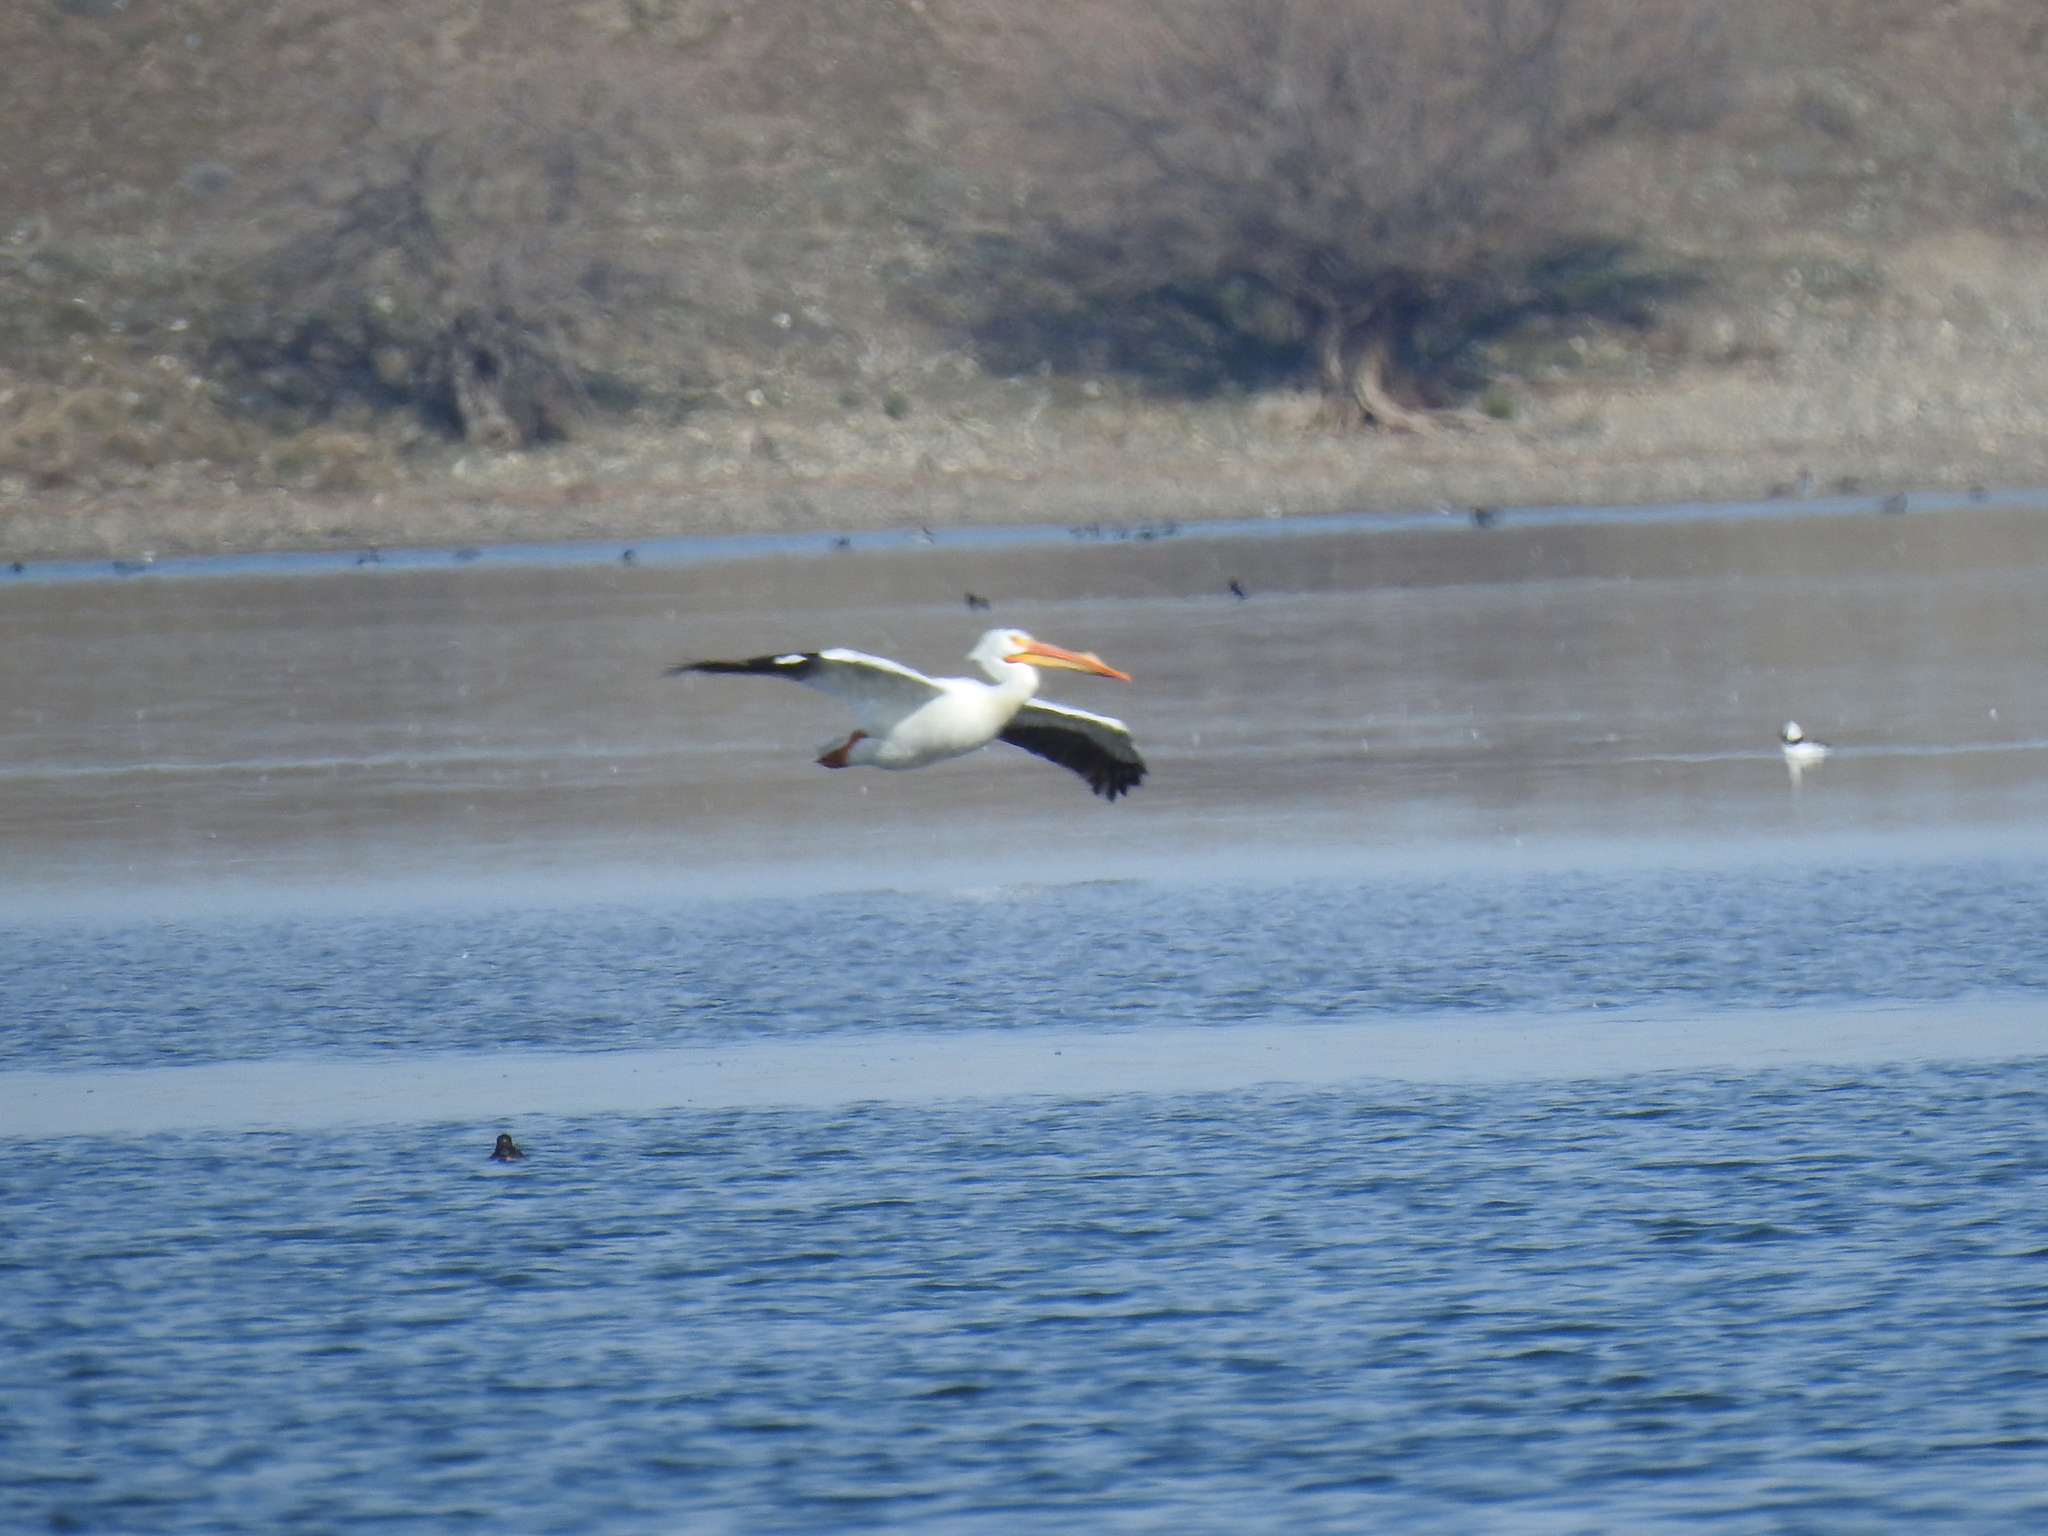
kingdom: Animalia
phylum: Chordata
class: Aves
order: Pelecaniformes
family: Pelecanidae
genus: Pelecanus
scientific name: Pelecanus erythrorhynchos
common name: American white pelican
